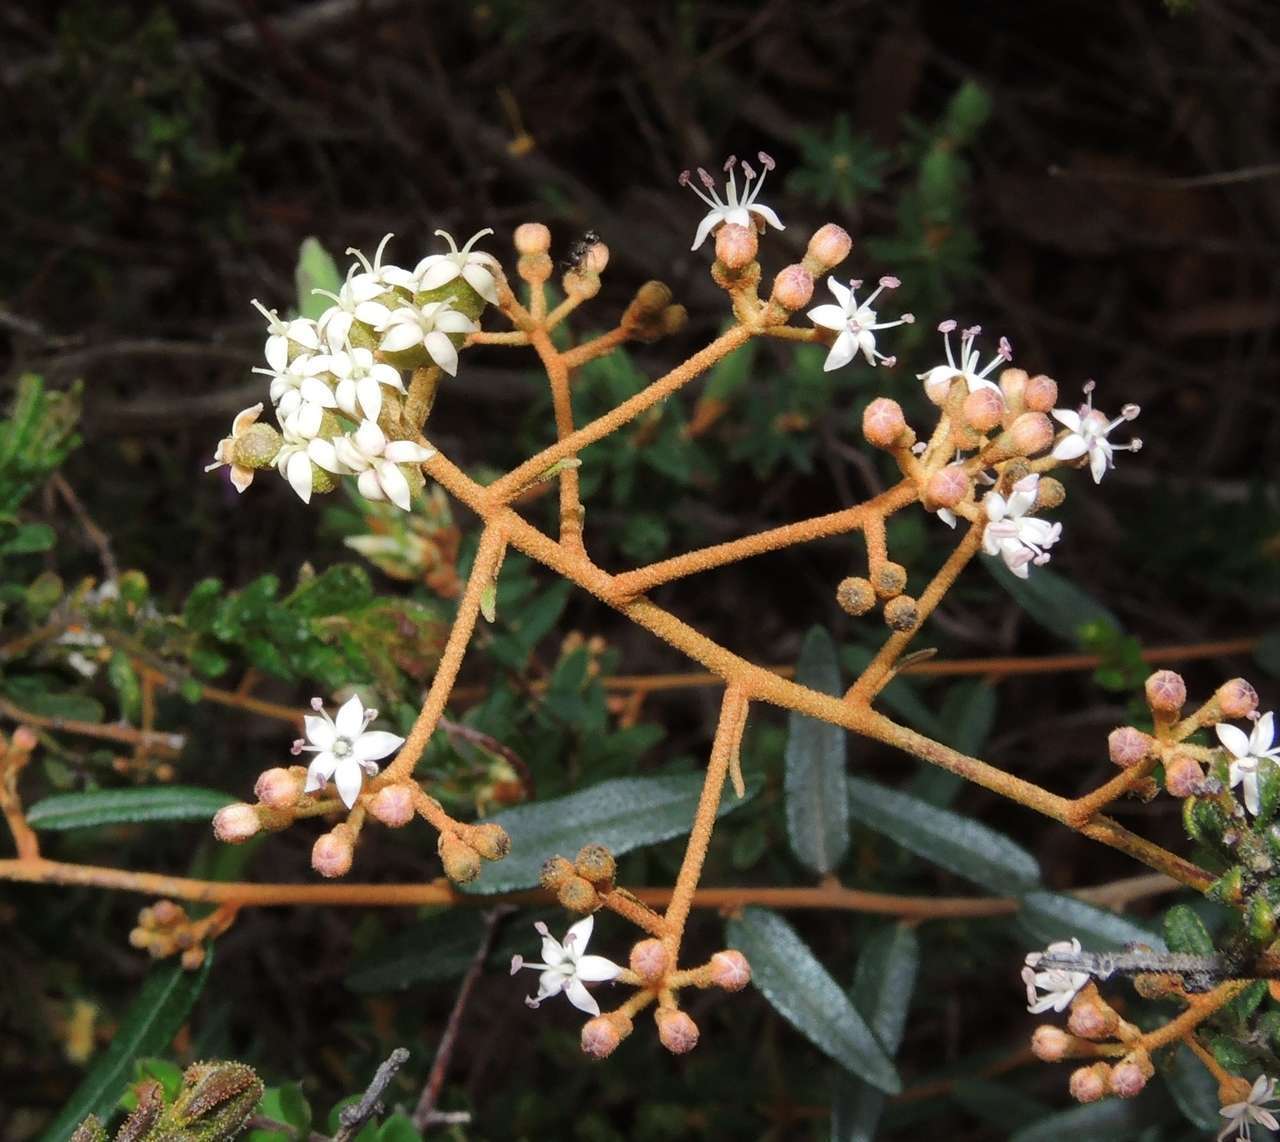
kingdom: Plantae
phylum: Tracheophyta
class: Magnoliopsida
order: Apiales
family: Araliaceae
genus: Astrotricha
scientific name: Astrotricha ledifolia
